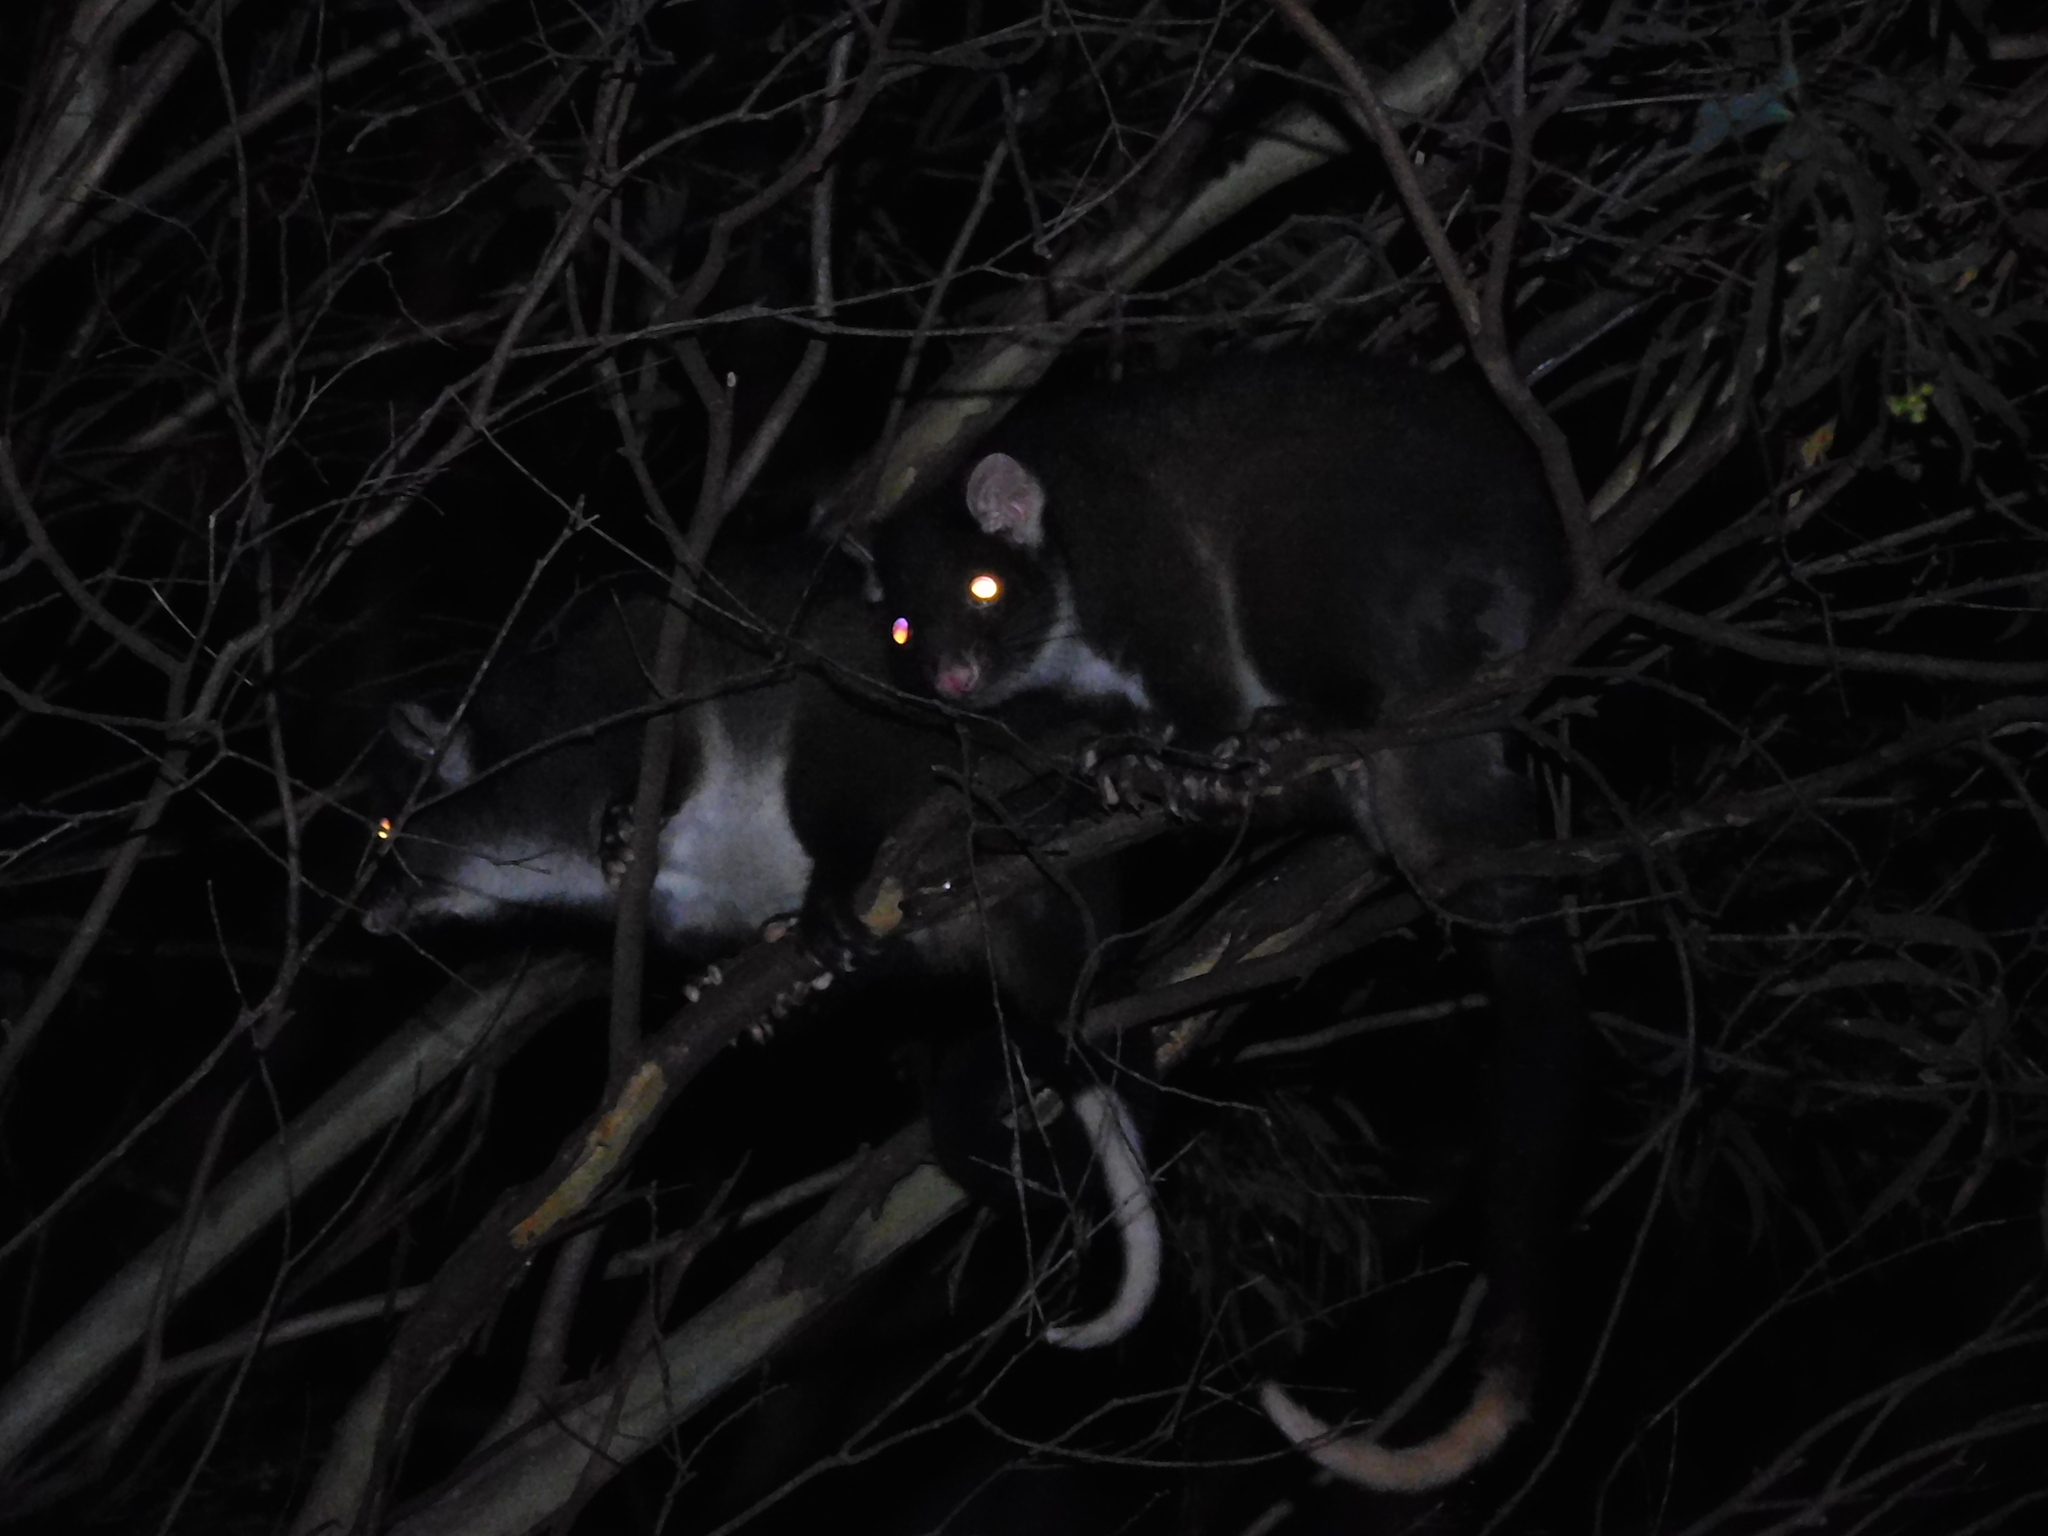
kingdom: Animalia
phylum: Chordata
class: Mammalia
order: Diprotodontia
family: Pseudocheiridae
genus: Pseudocheirus
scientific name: Pseudocheirus peregrinus
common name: Common ringtail possum
